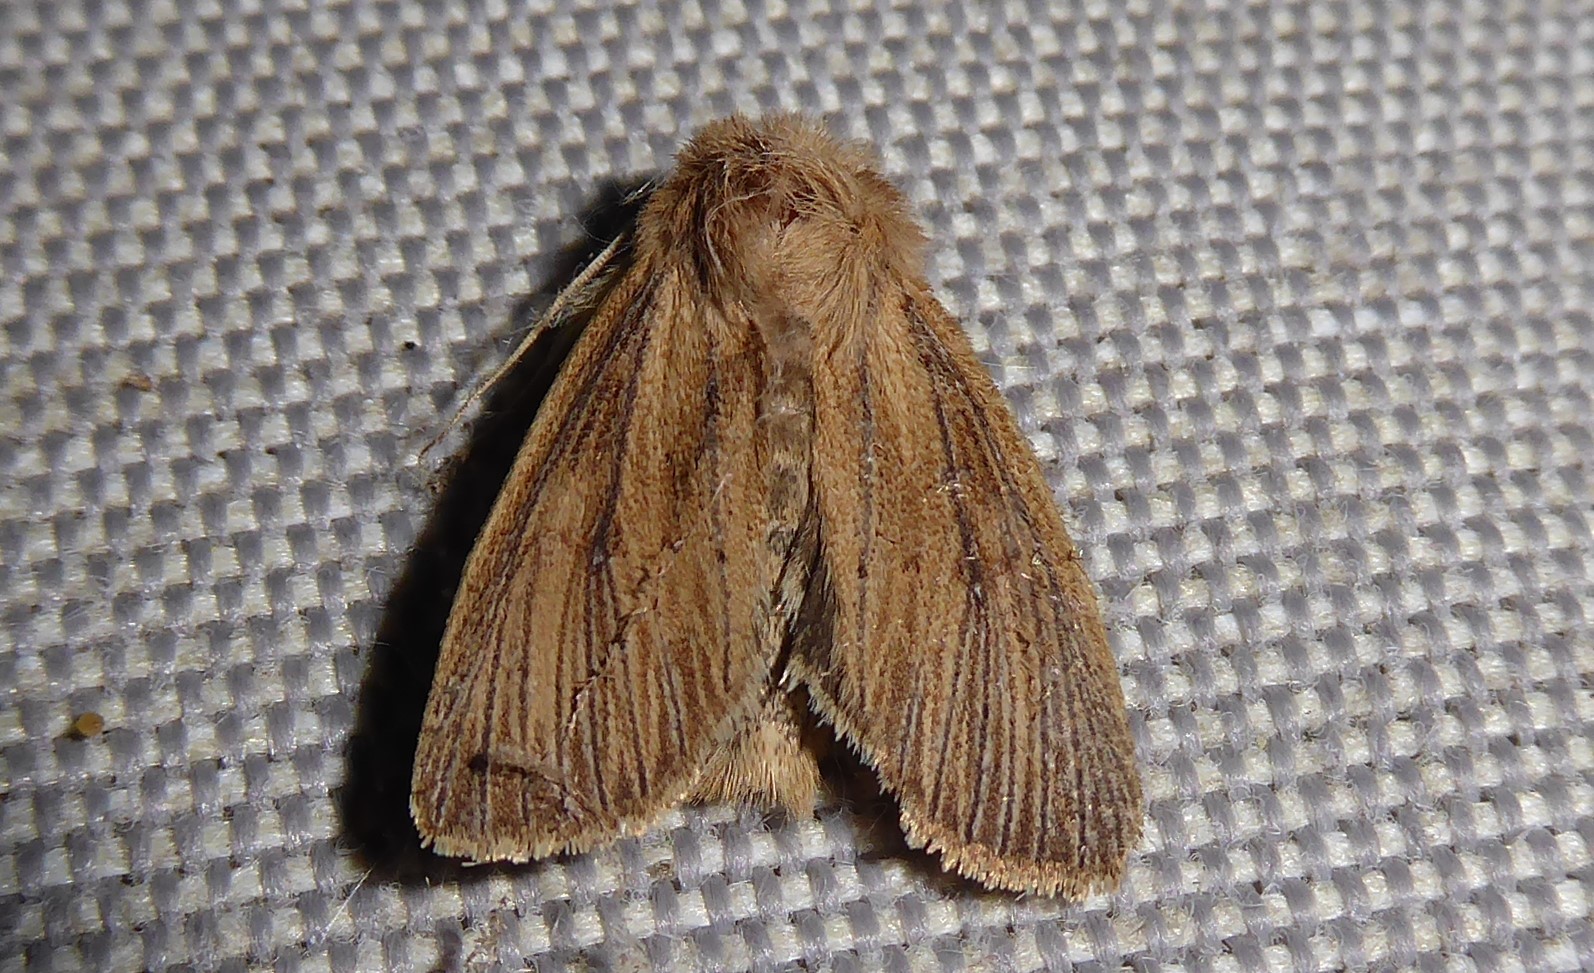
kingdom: Animalia
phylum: Arthropoda
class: Insecta
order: Lepidoptera
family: Noctuidae
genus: Ichneutica
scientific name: Ichneutica arotis
